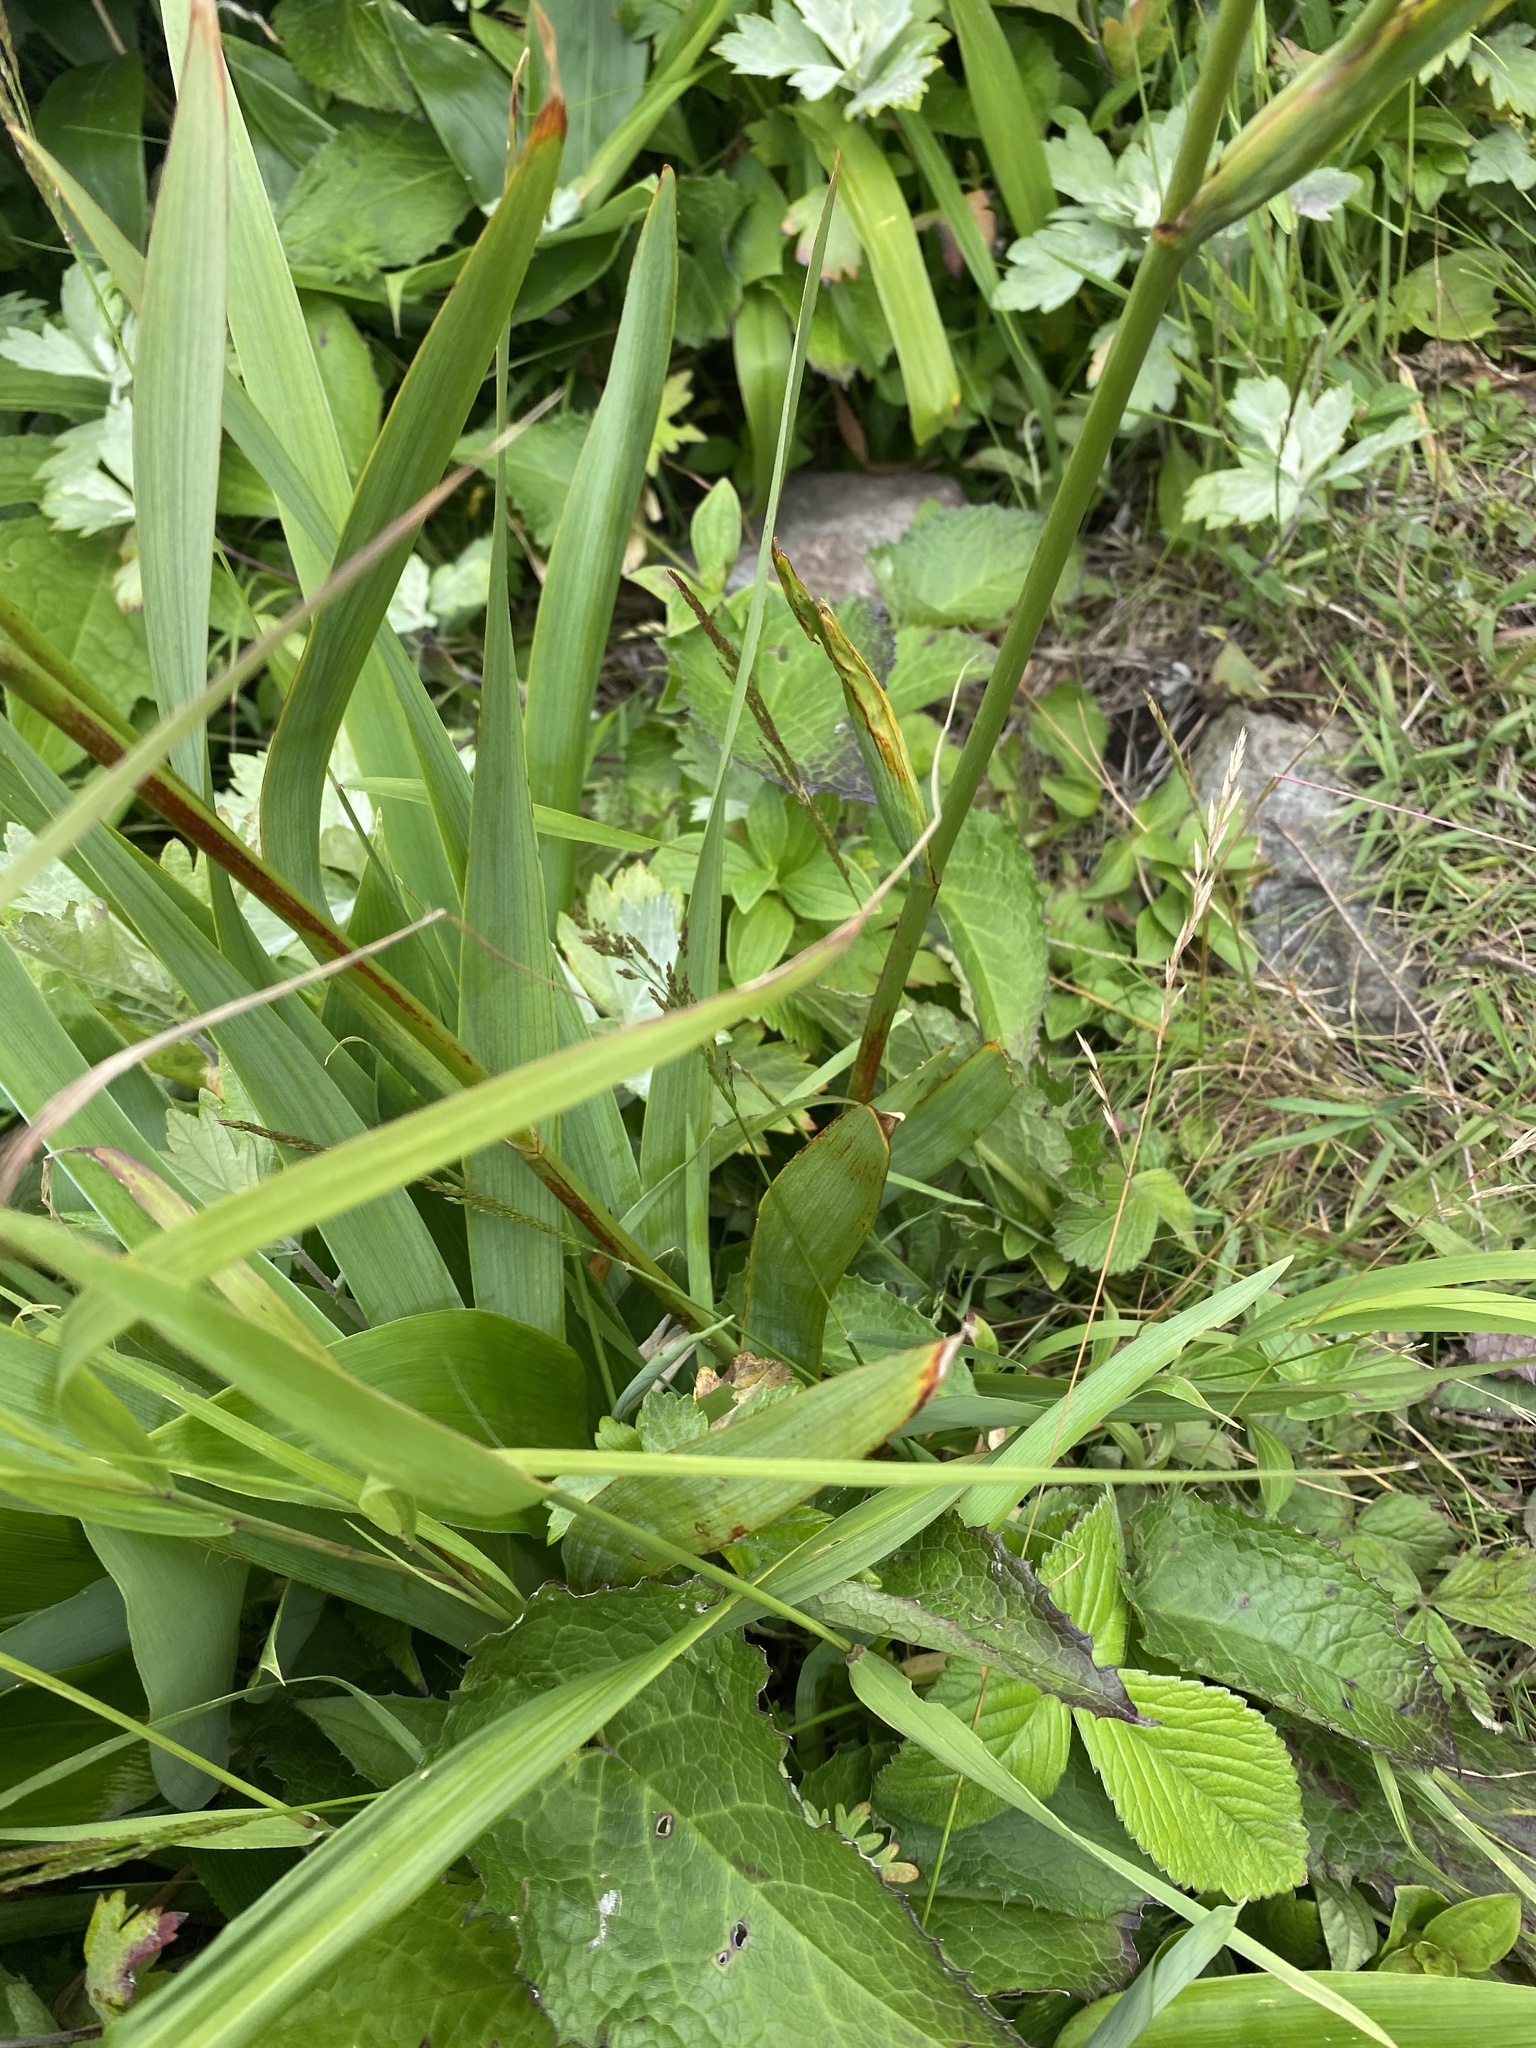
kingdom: Plantae
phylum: Tracheophyta
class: Liliopsida
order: Asparagales
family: Iridaceae
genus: Iris
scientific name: Iris setosa
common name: Arctic blue flag
